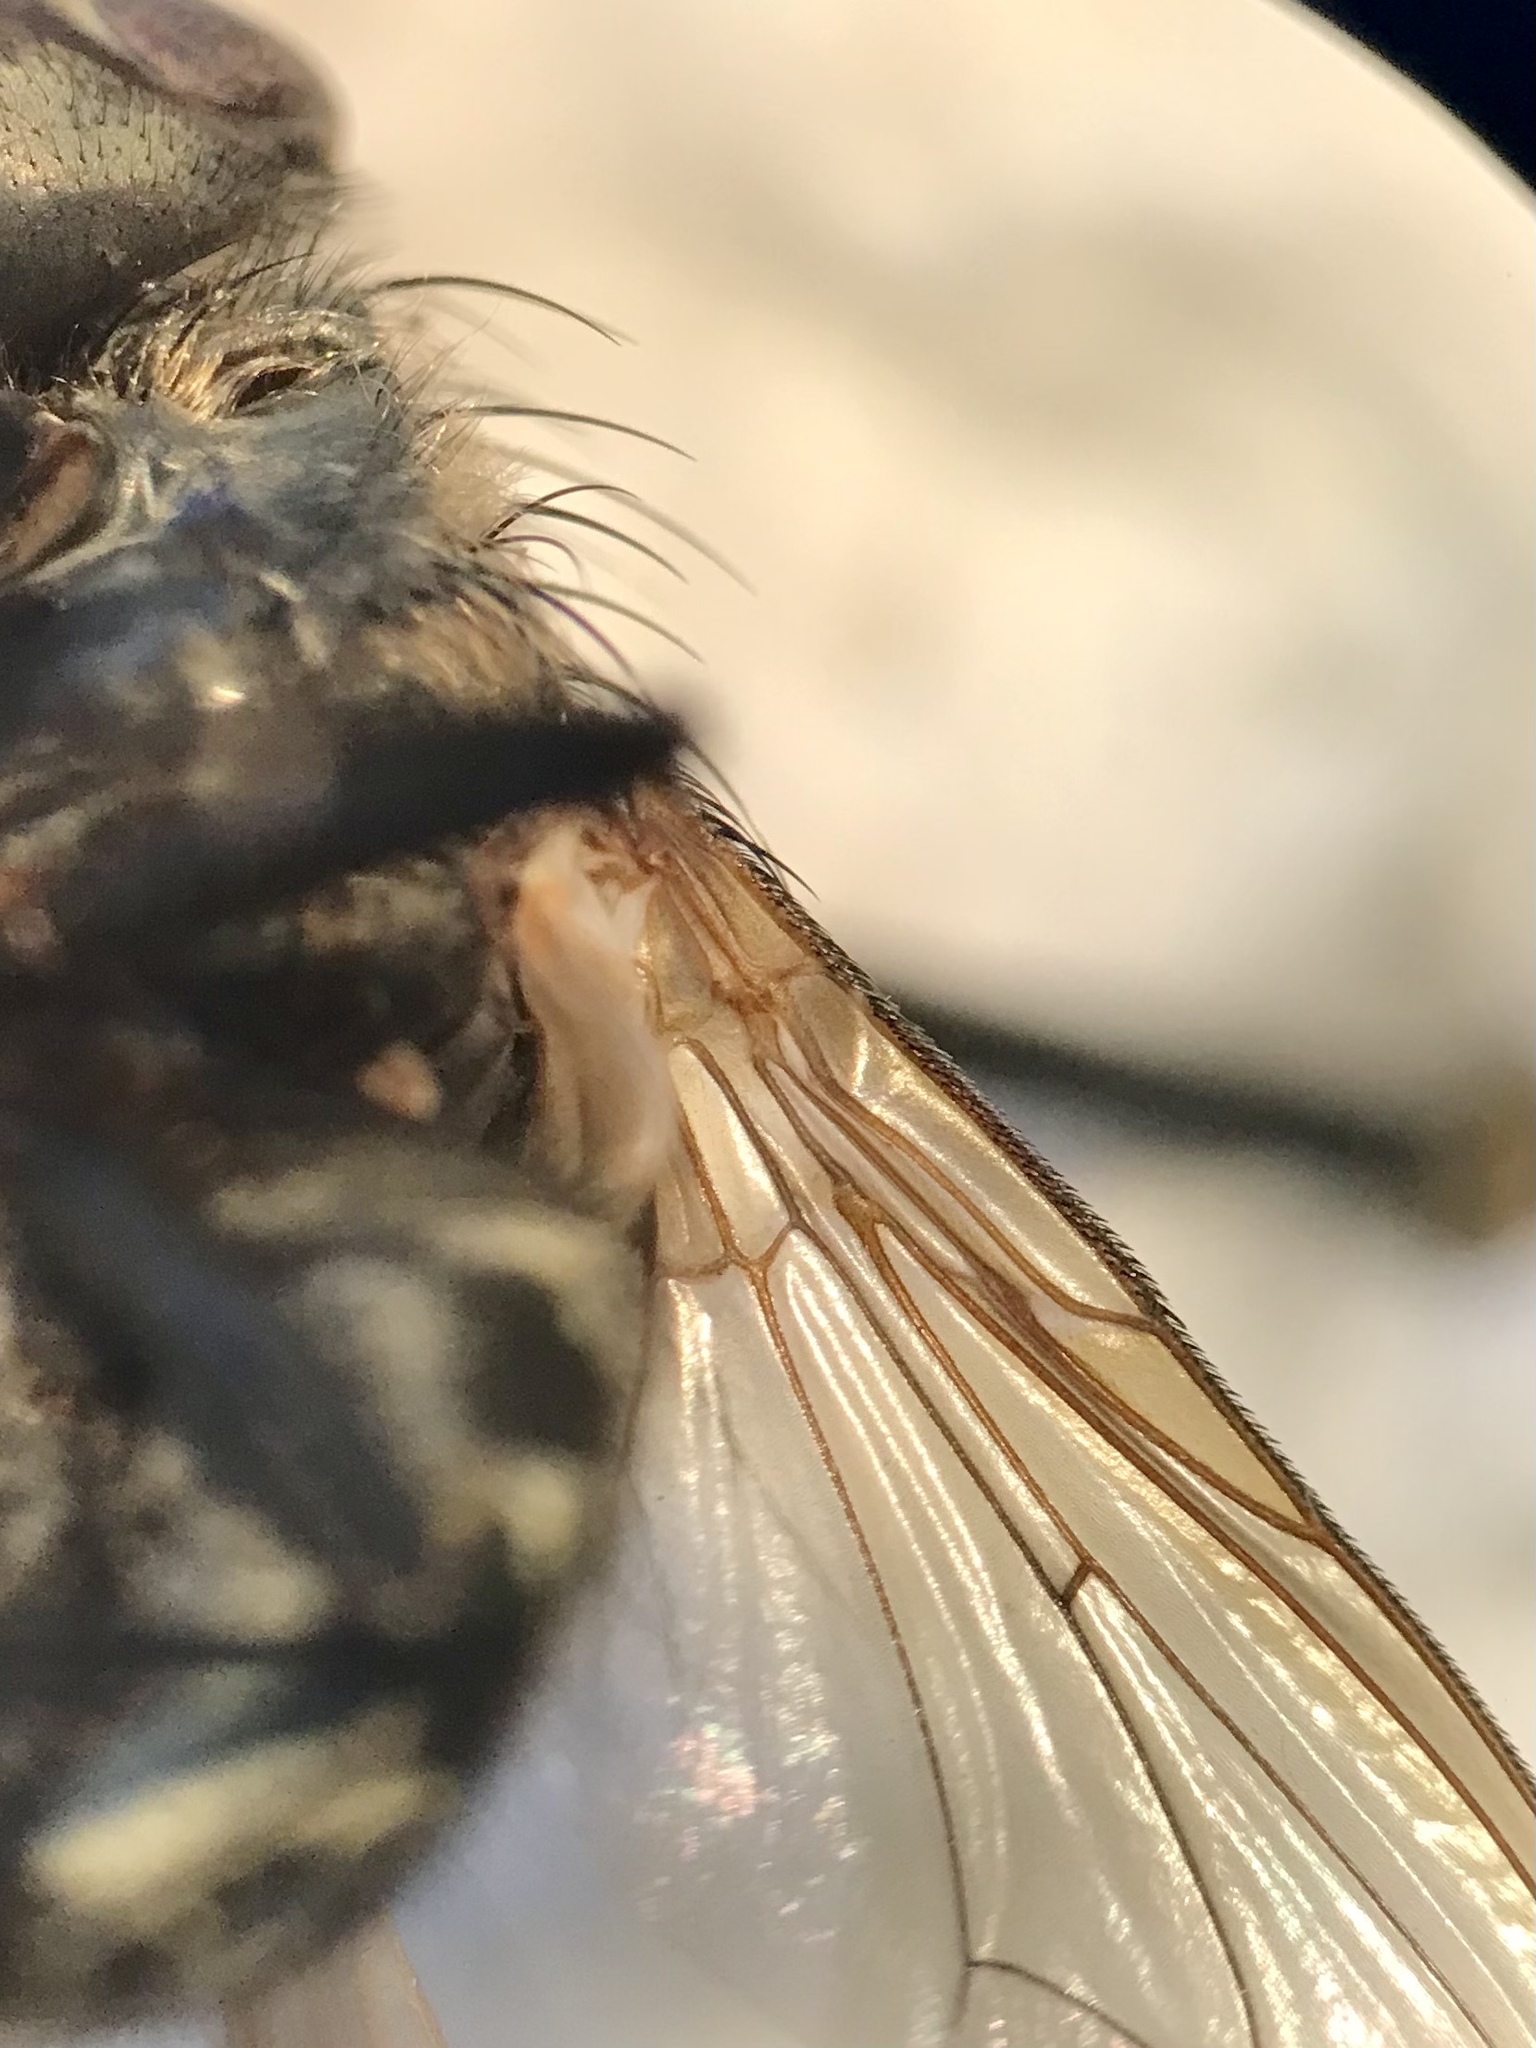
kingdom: Animalia
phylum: Arthropoda
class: Insecta
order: Diptera
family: Polleniidae
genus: Pollenia
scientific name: Pollenia intermedia
